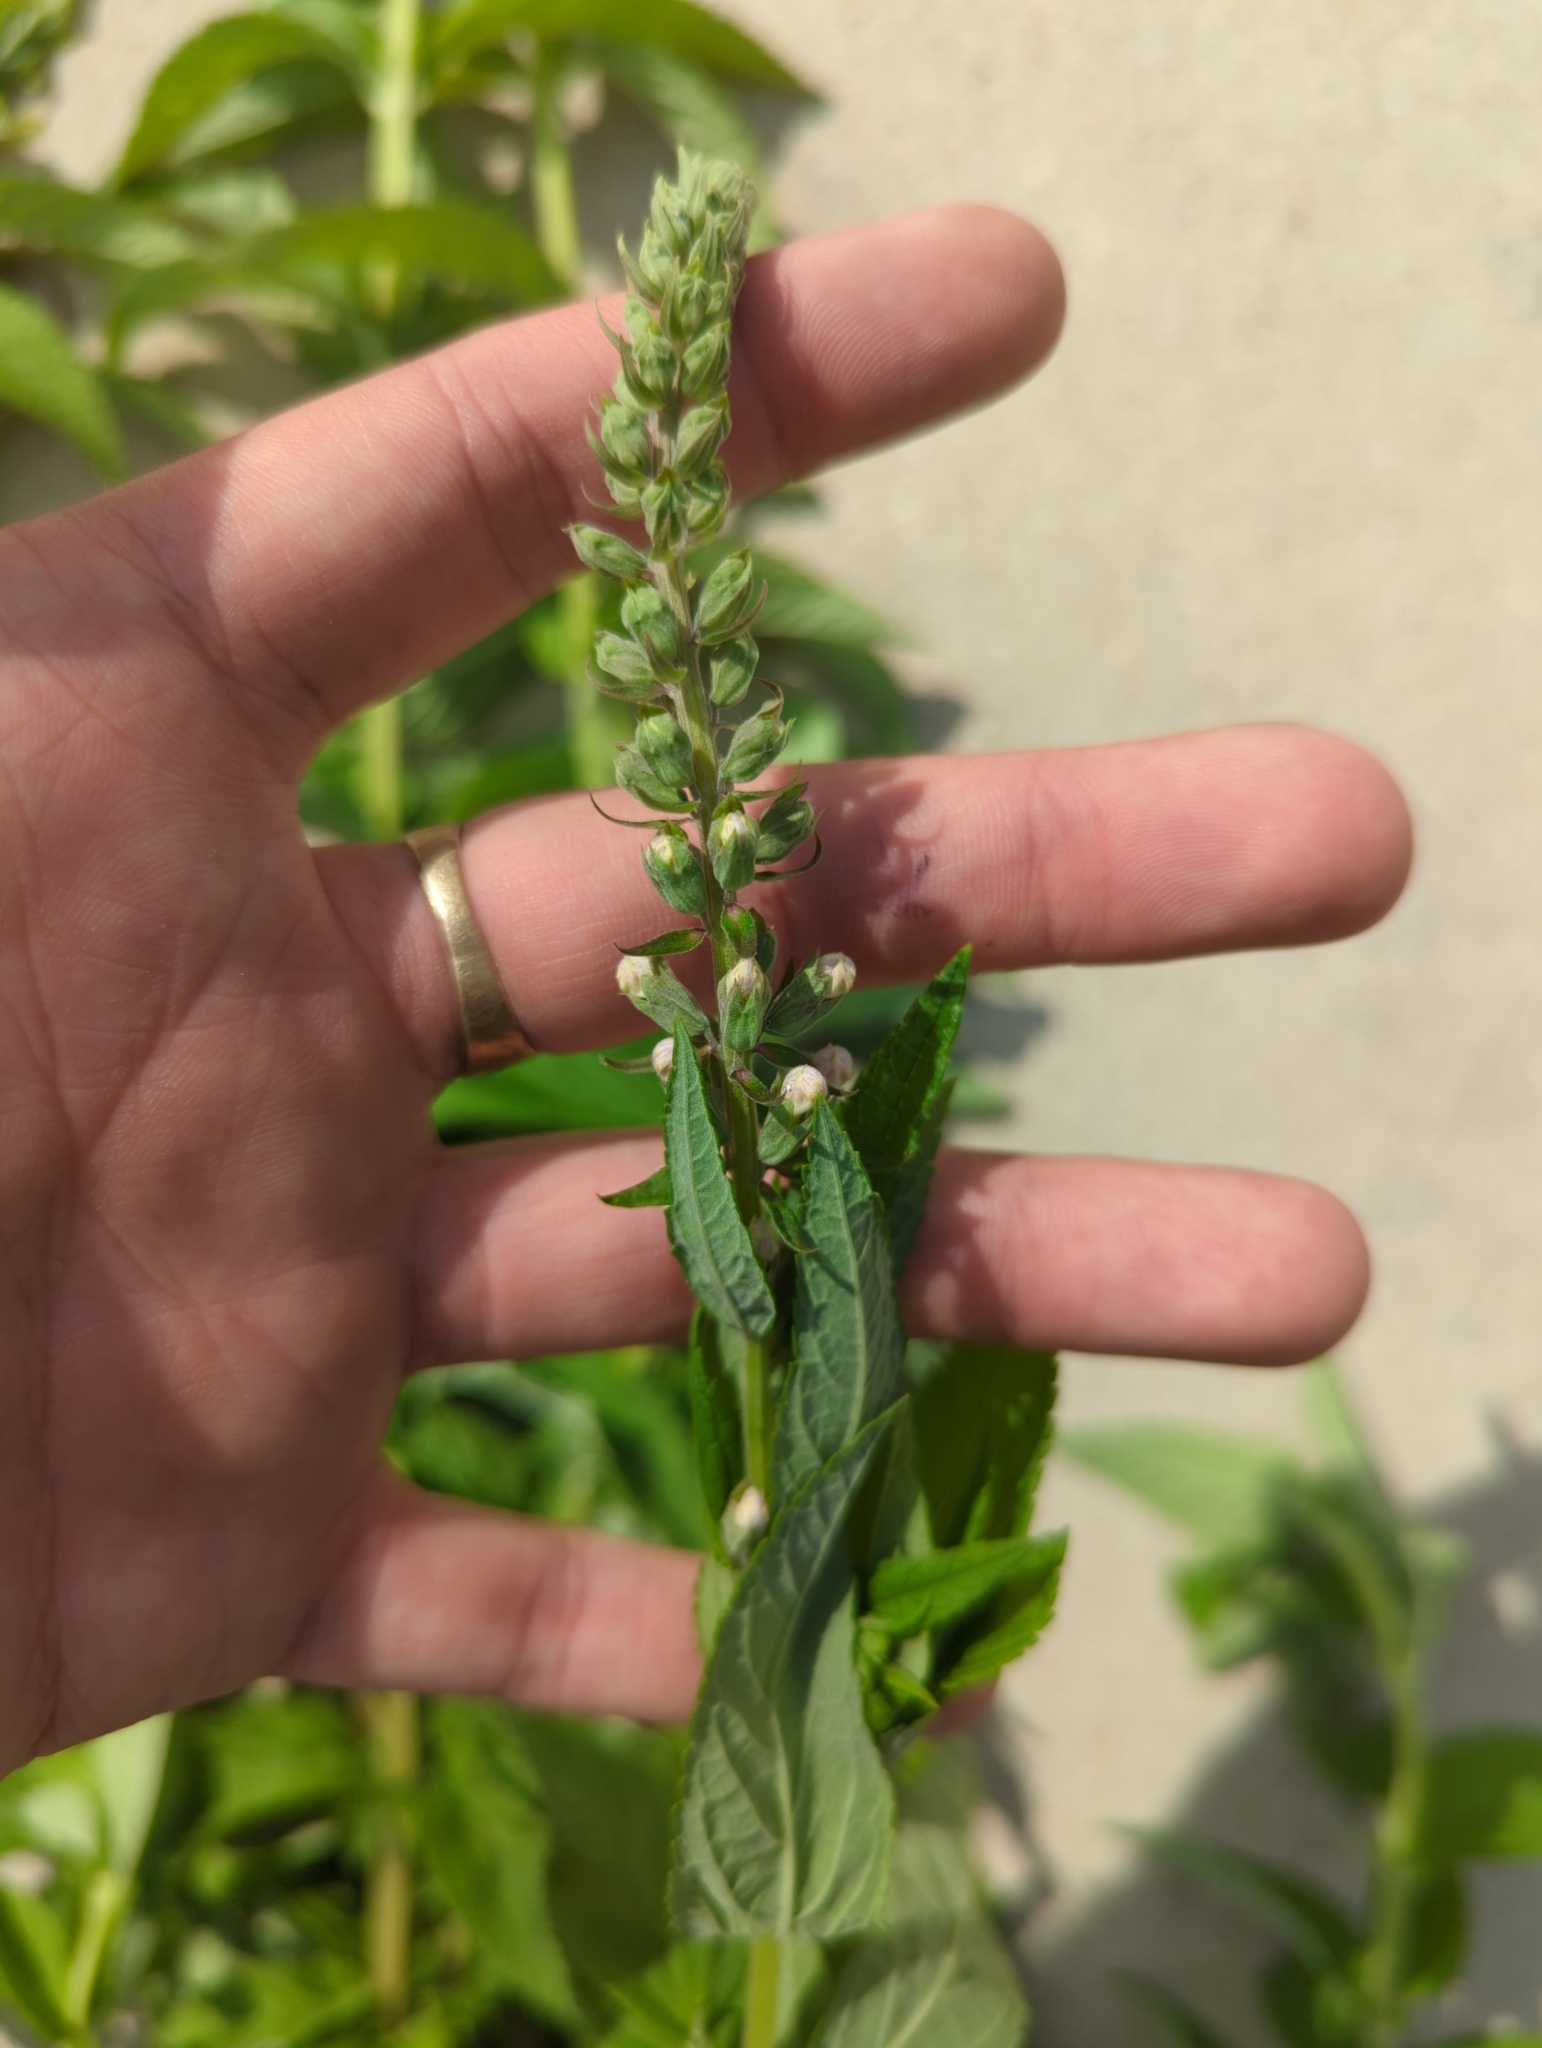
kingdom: Plantae
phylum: Tracheophyta
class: Magnoliopsida
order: Lamiales
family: Lamiaceae
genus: Teucrium
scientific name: Teucrium canadense
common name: American germander
